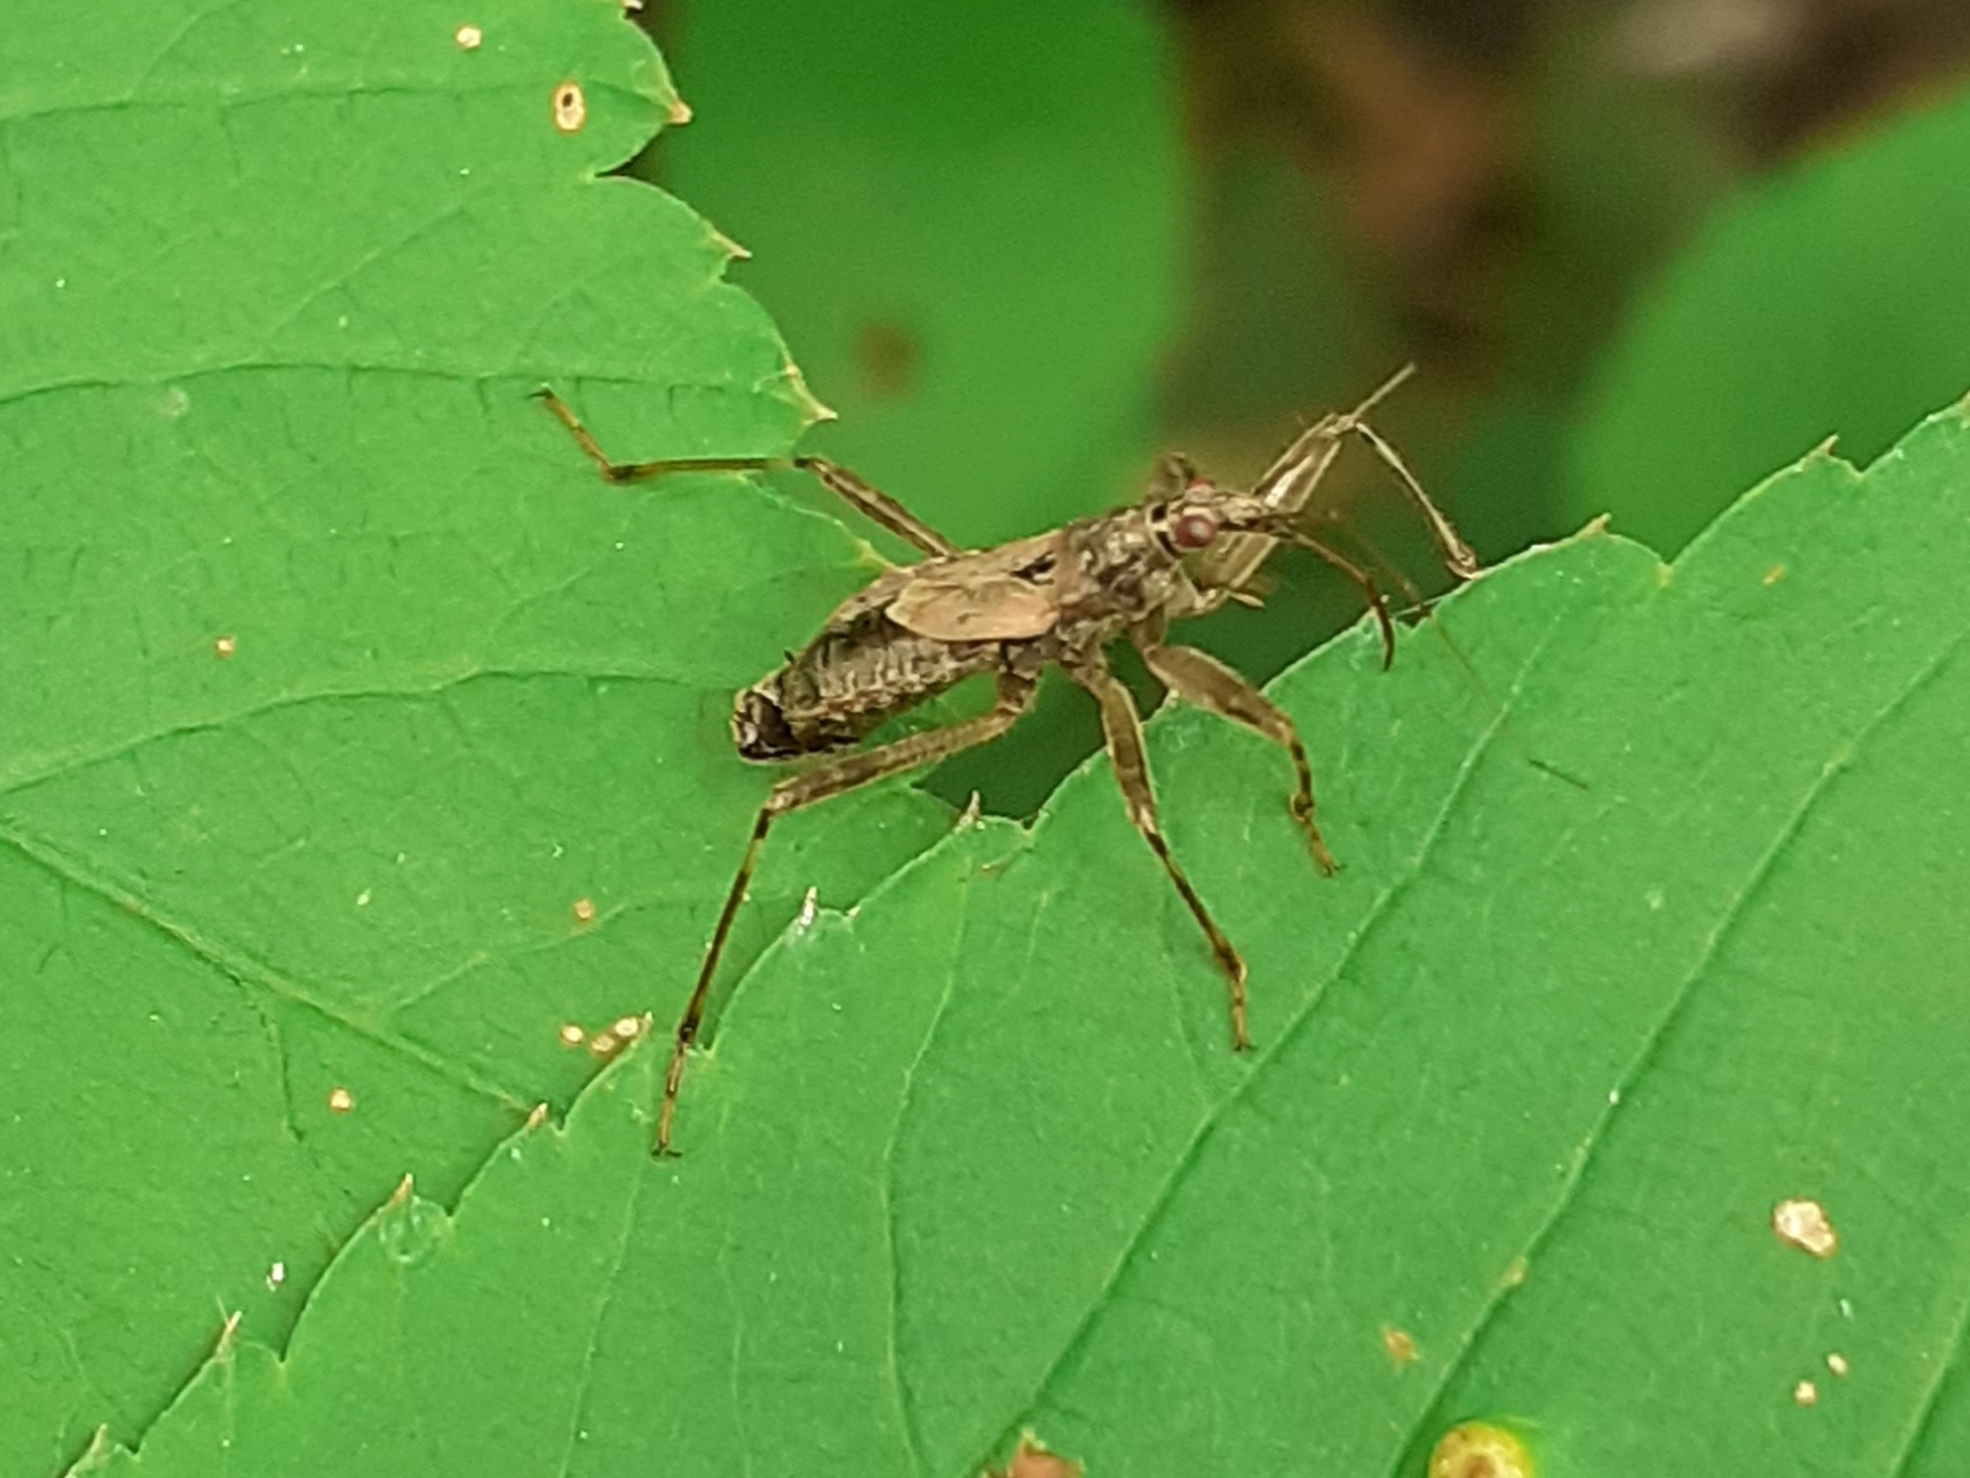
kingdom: Animalia
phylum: Arthropoda
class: Insecta
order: Hemiptera
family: Nabidae
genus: Himacerus
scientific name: Himacerus apterus
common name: Tree damsel bug
